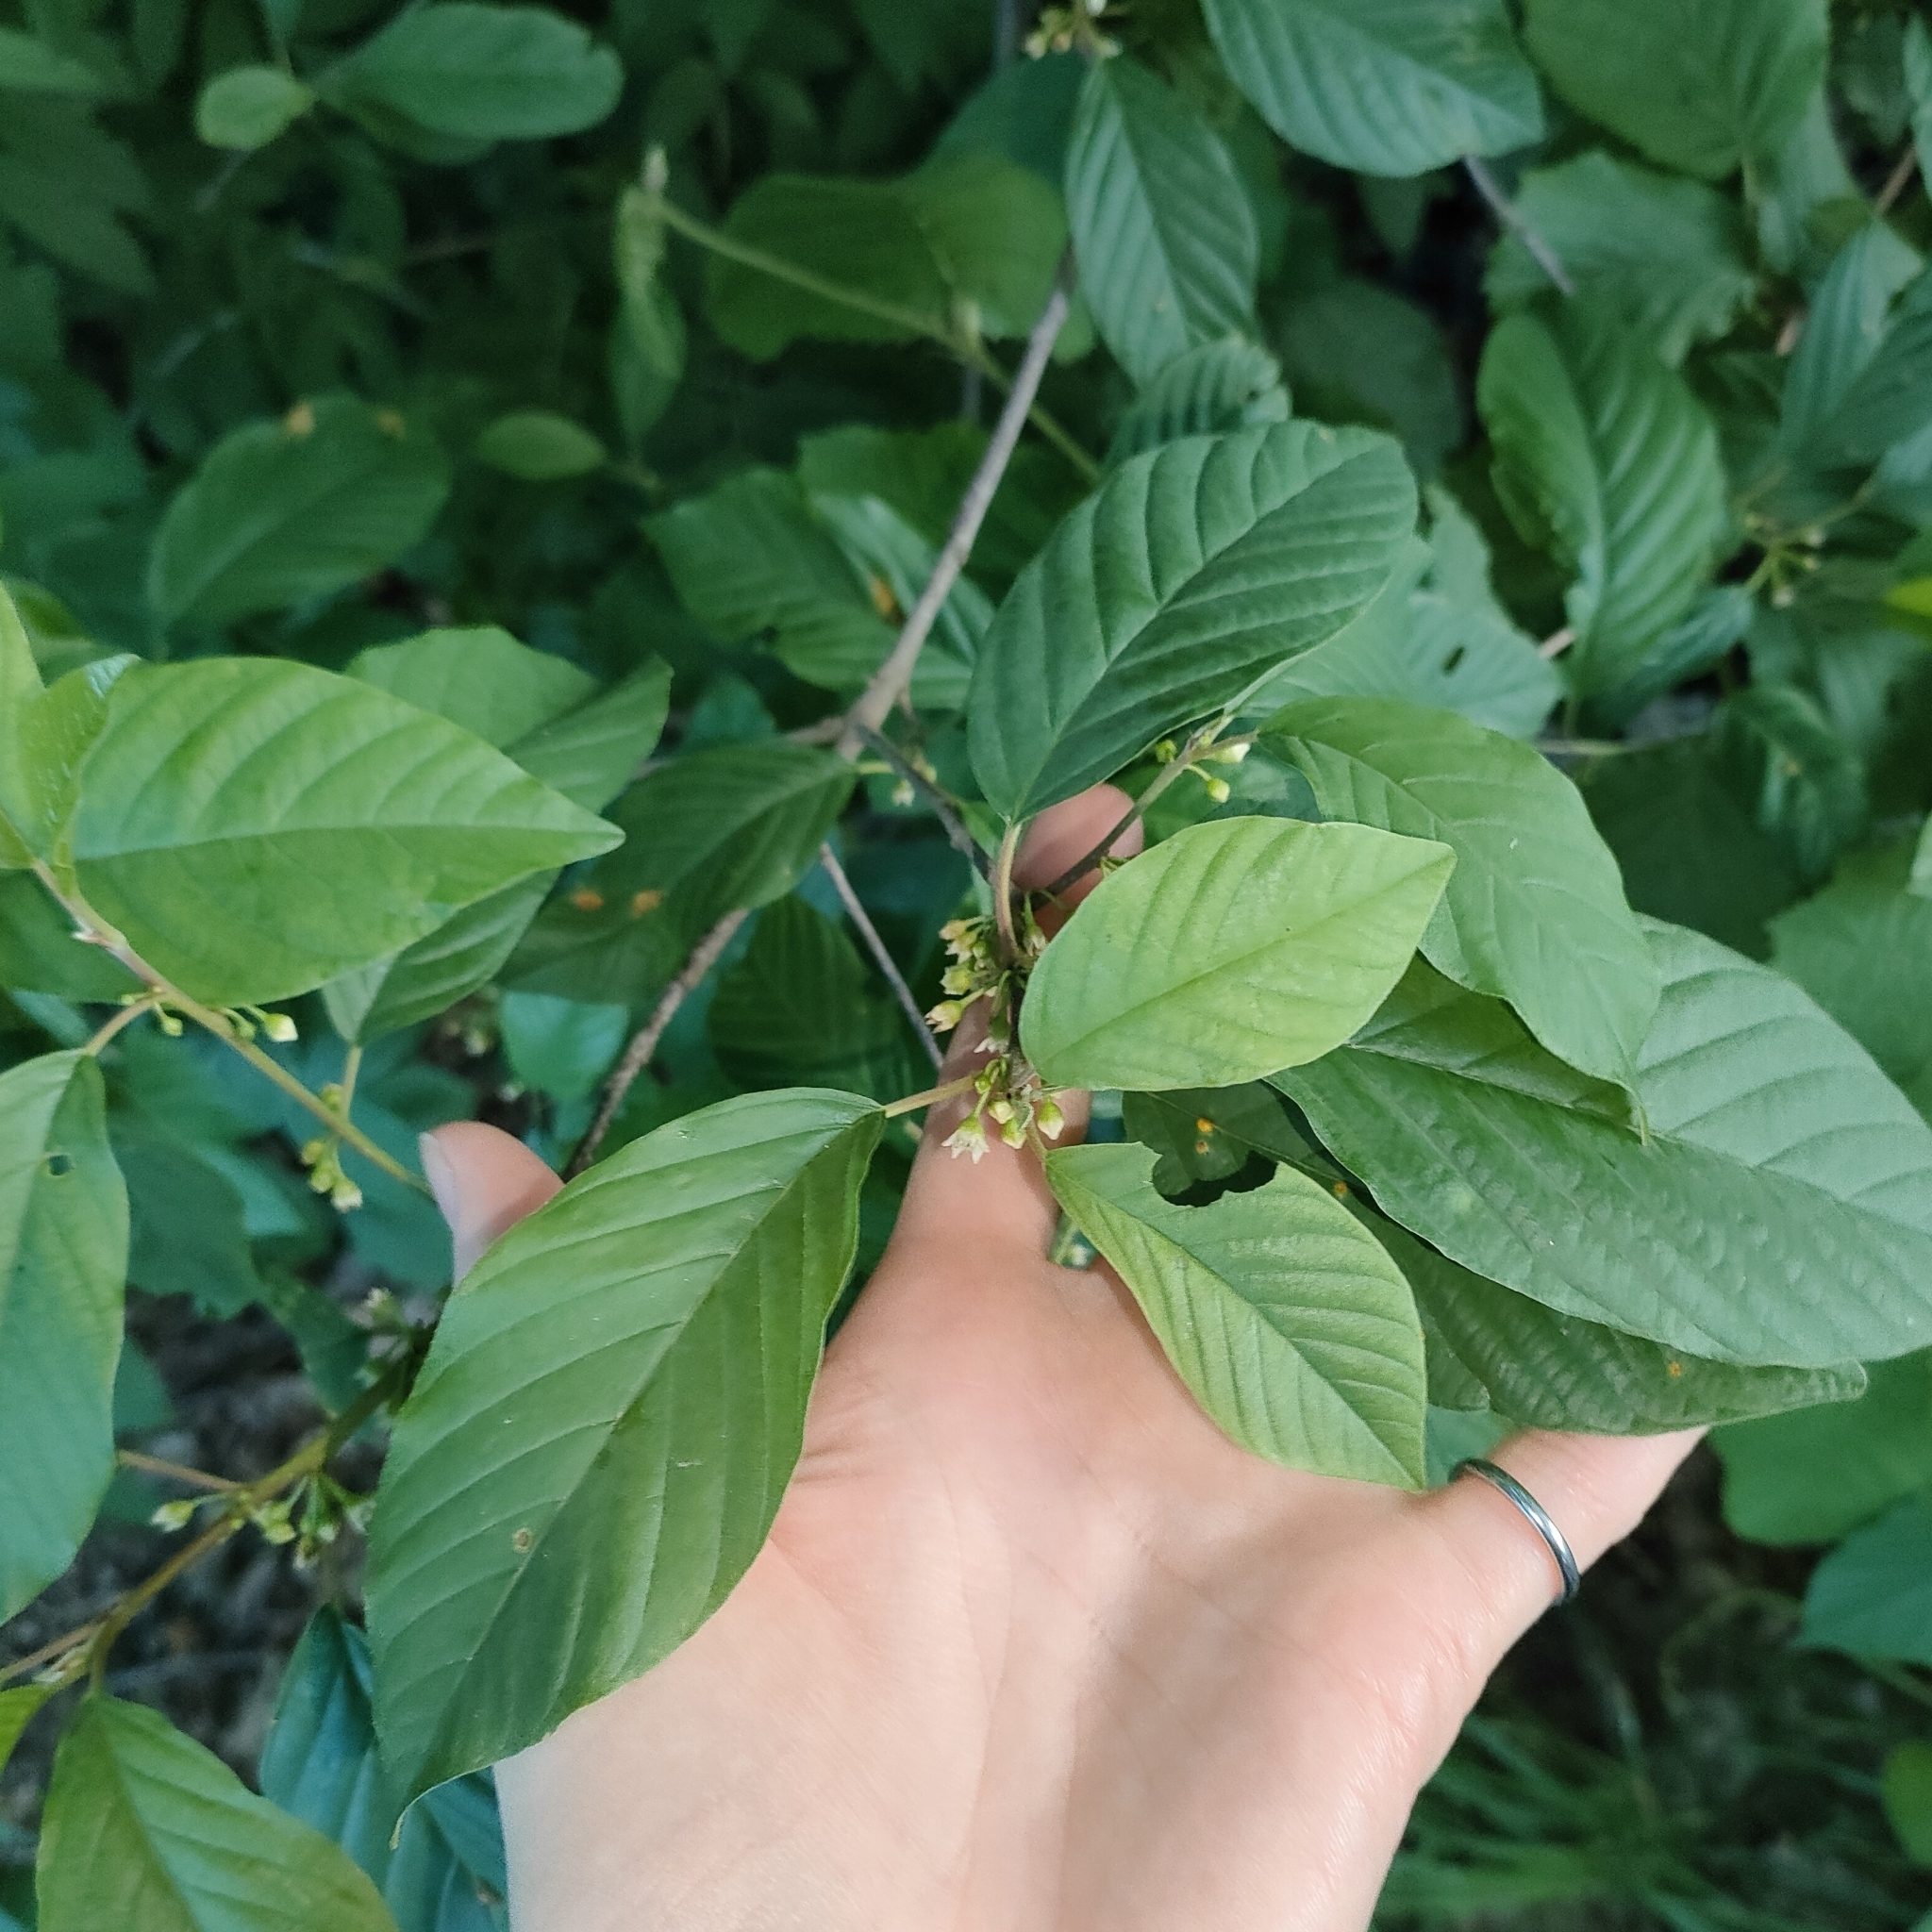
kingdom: Plantae
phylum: Tracheophyta
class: Magnoliopsida
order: Rosales
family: Rhamnaceae
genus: Frangula
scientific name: Frangula alnus
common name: Alder buckthorn
